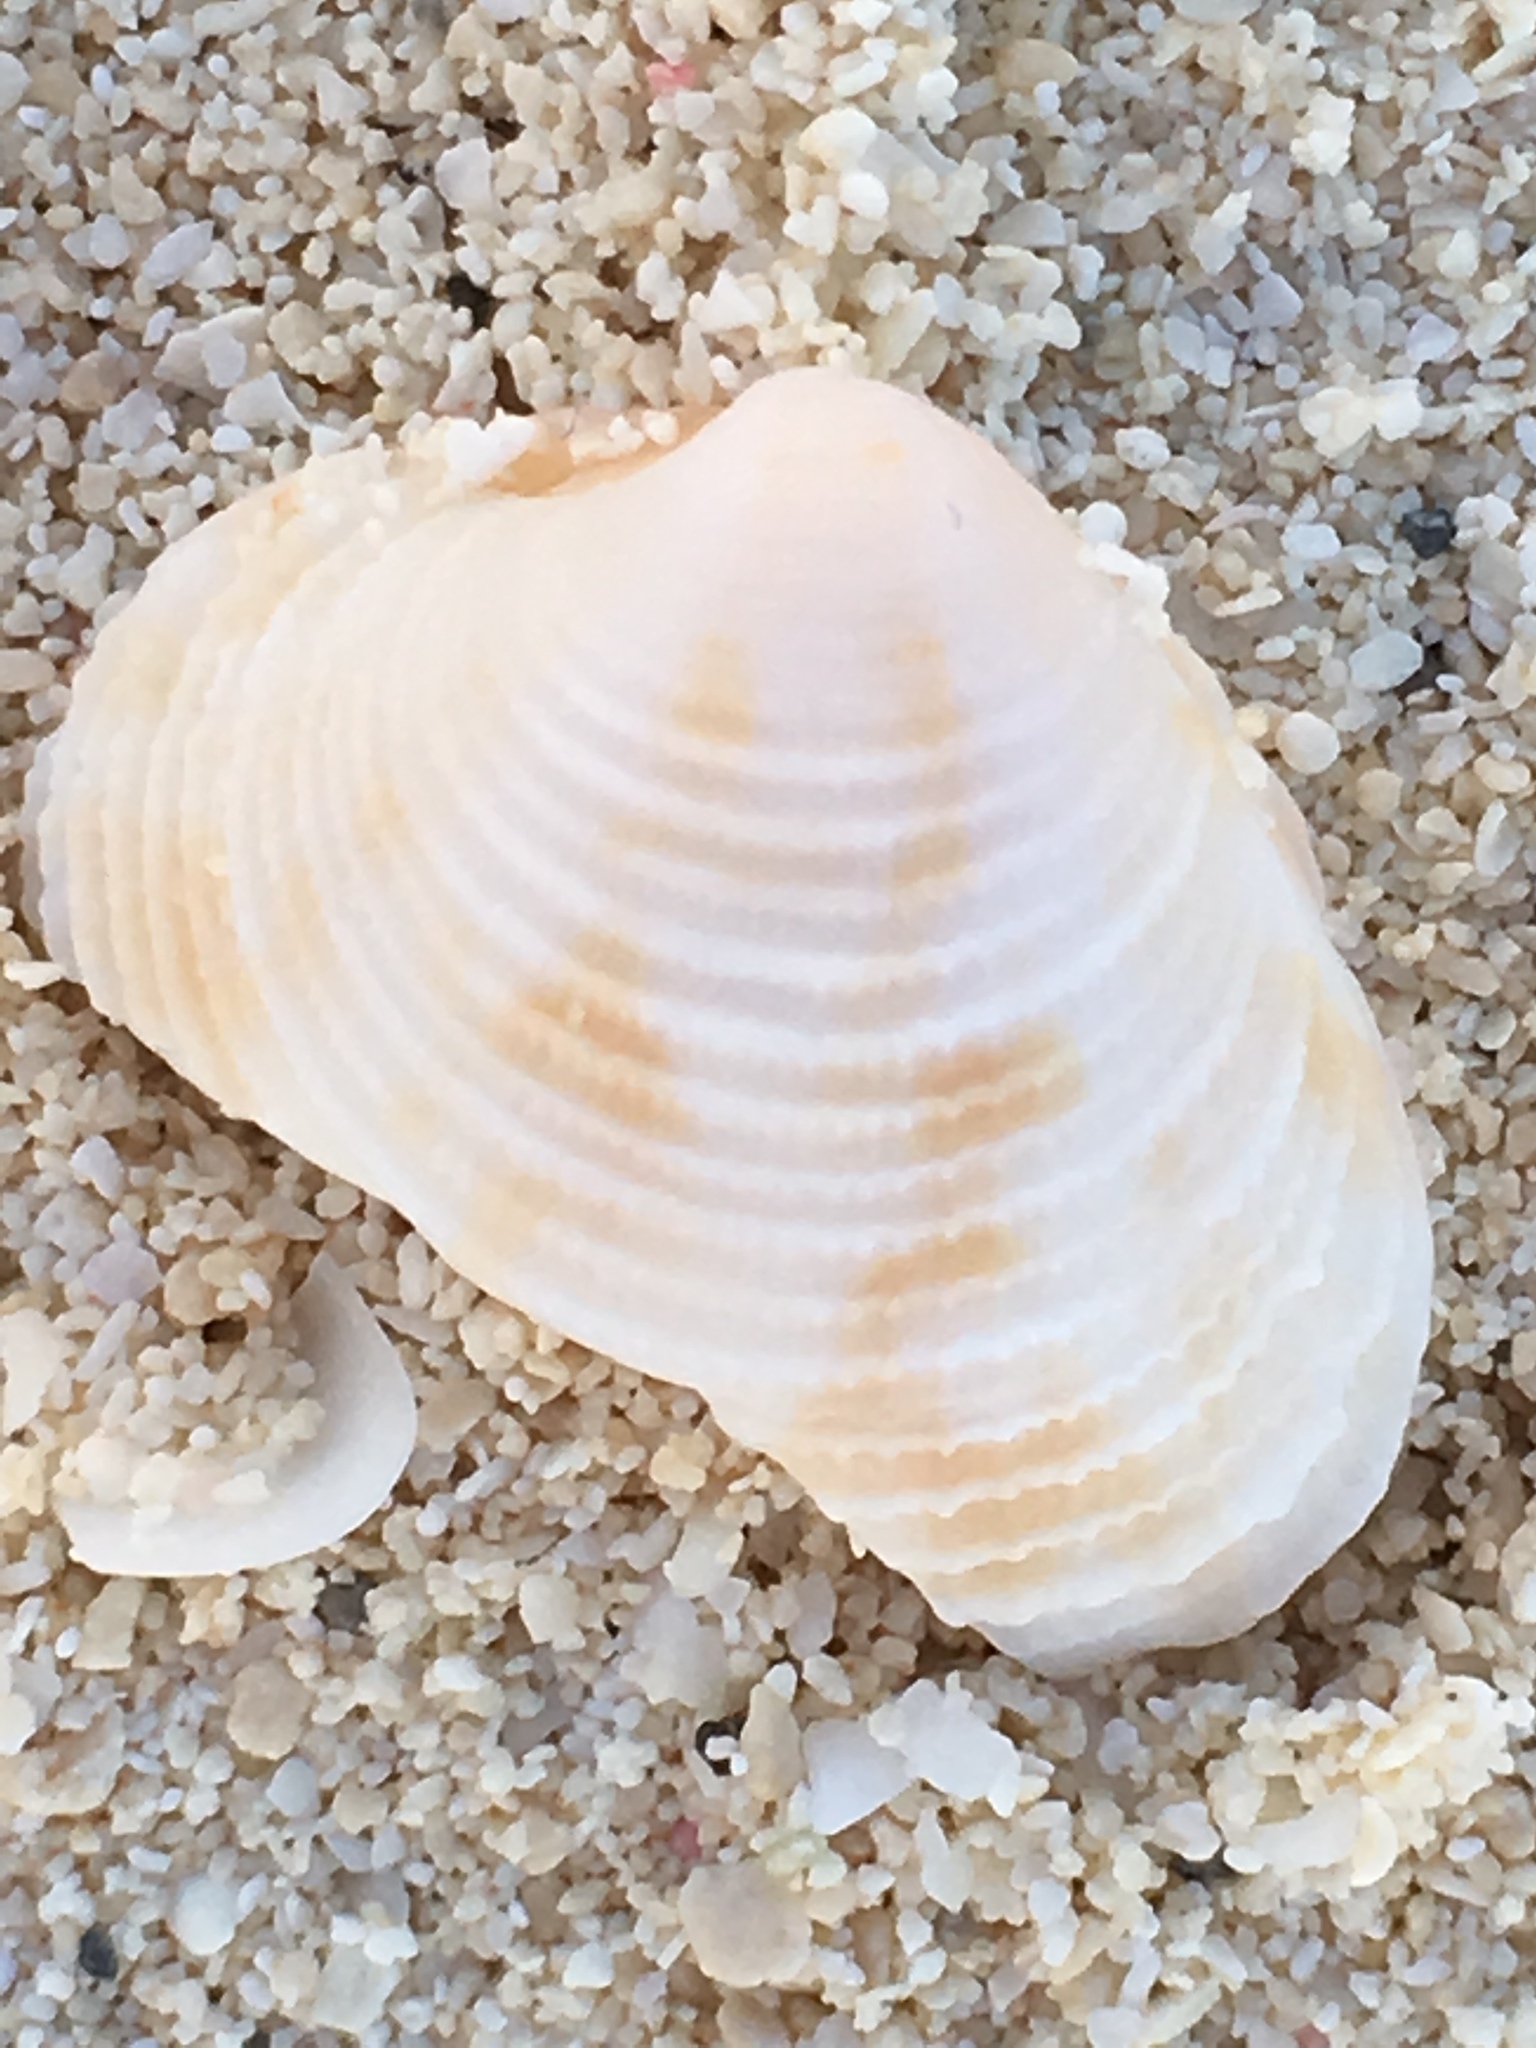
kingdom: Animalia
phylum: Mollusca
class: Bivalvia
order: Venerida
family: Veneridae
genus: Chionopsis
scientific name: Chionopsis intapurpurea
